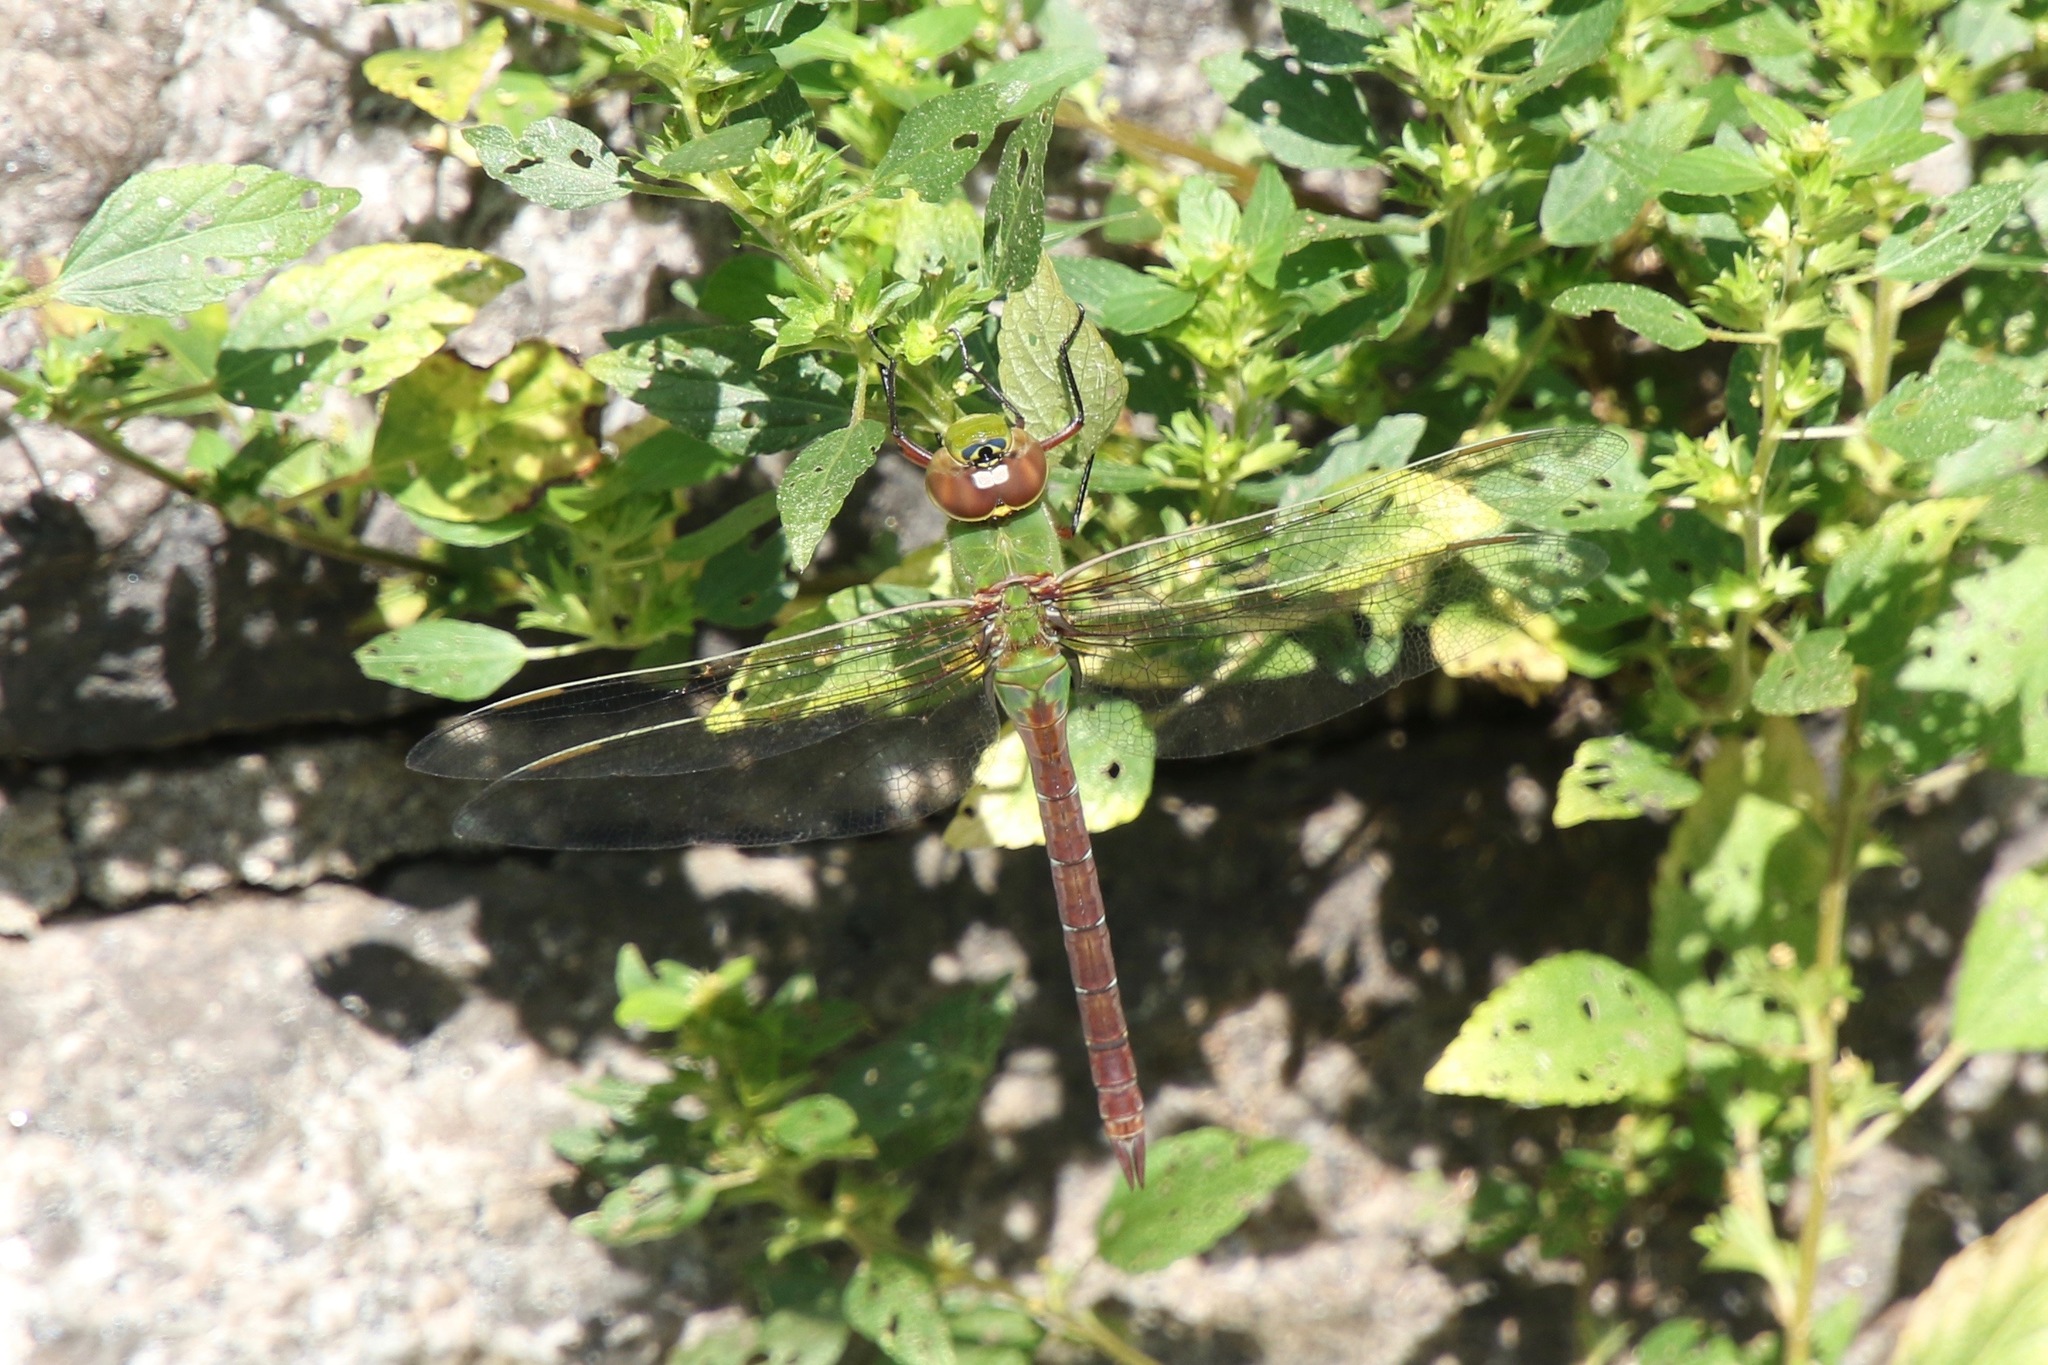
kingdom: Animalia
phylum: Arthropoda
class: Insecta
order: Odonata
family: Aeshnidae
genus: Anax
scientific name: Anax junius
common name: Common green darner
